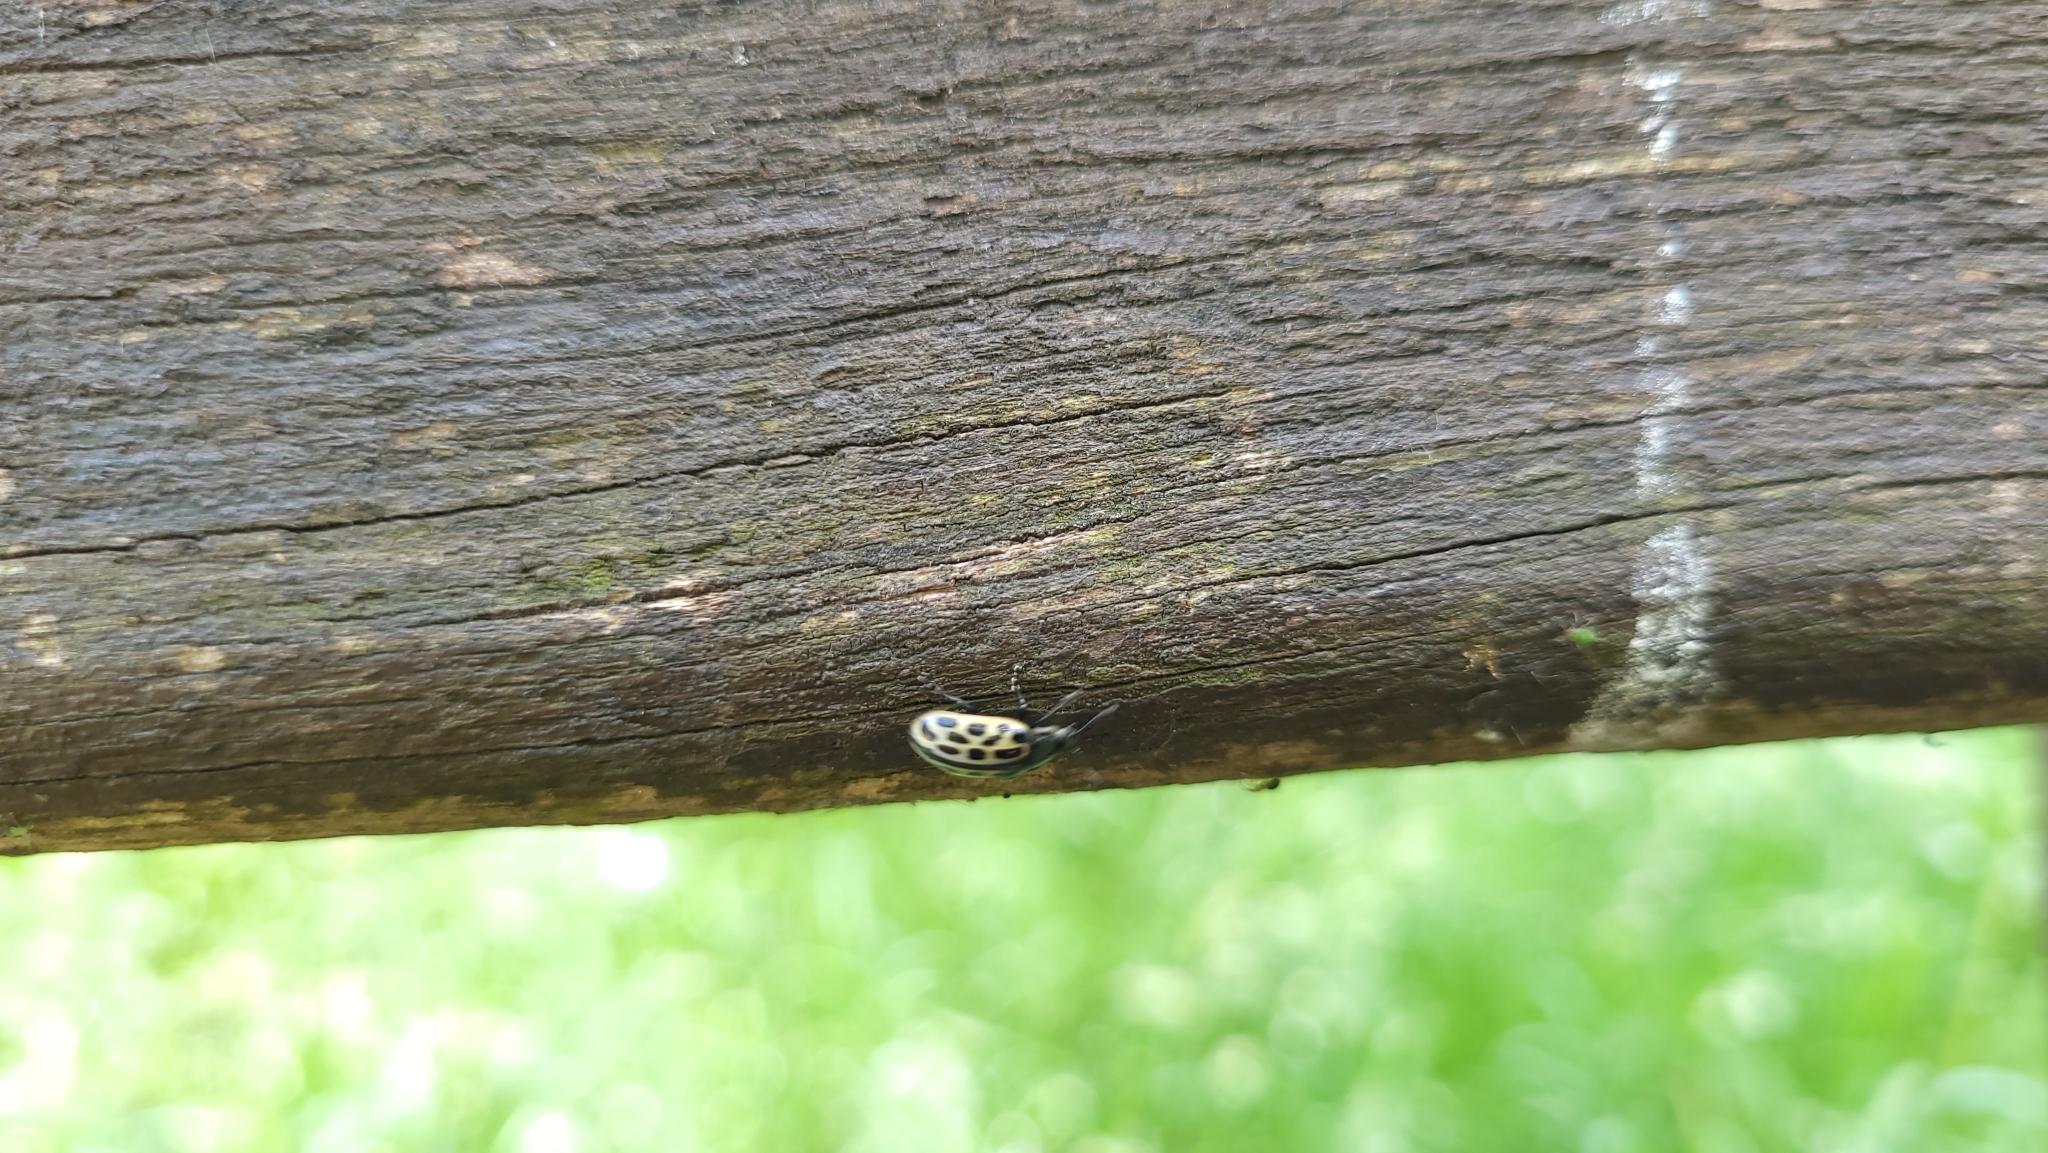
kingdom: Animalia
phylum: Arthropoda
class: Insecta
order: Coleoptera
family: Chrysomelidae
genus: Chrysomela
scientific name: Chrysomela vigintipunctata
